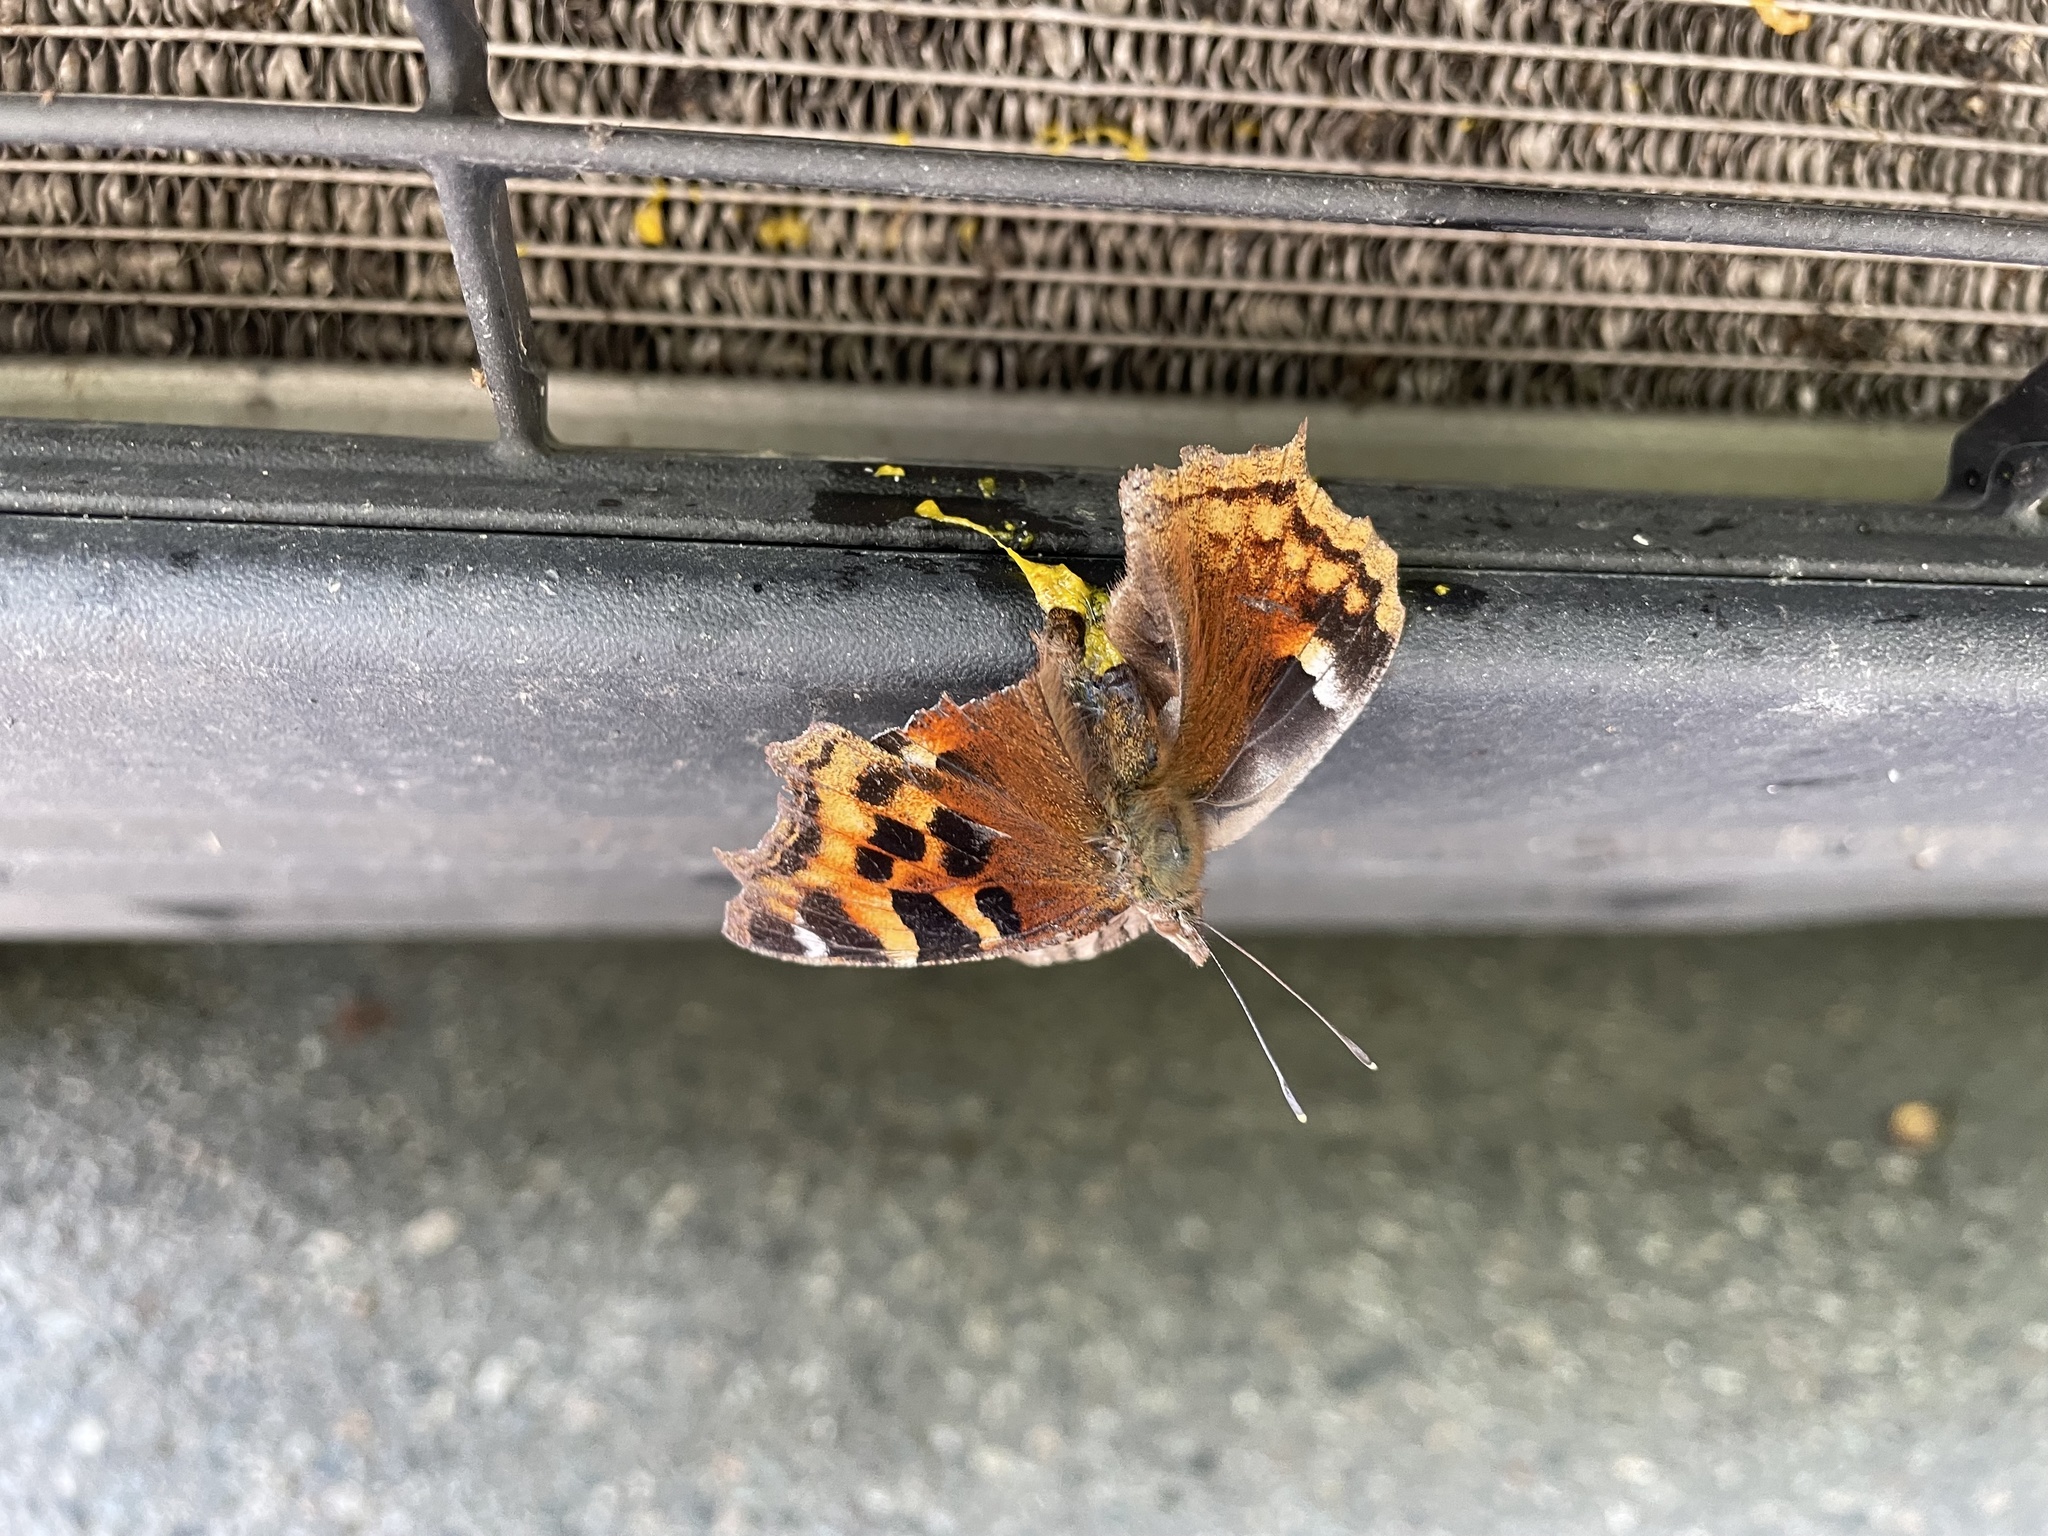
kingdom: Animalia
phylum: Arthropoda
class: Insecta
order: Lepidoptera
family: Nymphalidae
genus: Polygonia
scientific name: Polygonia vaualbum
